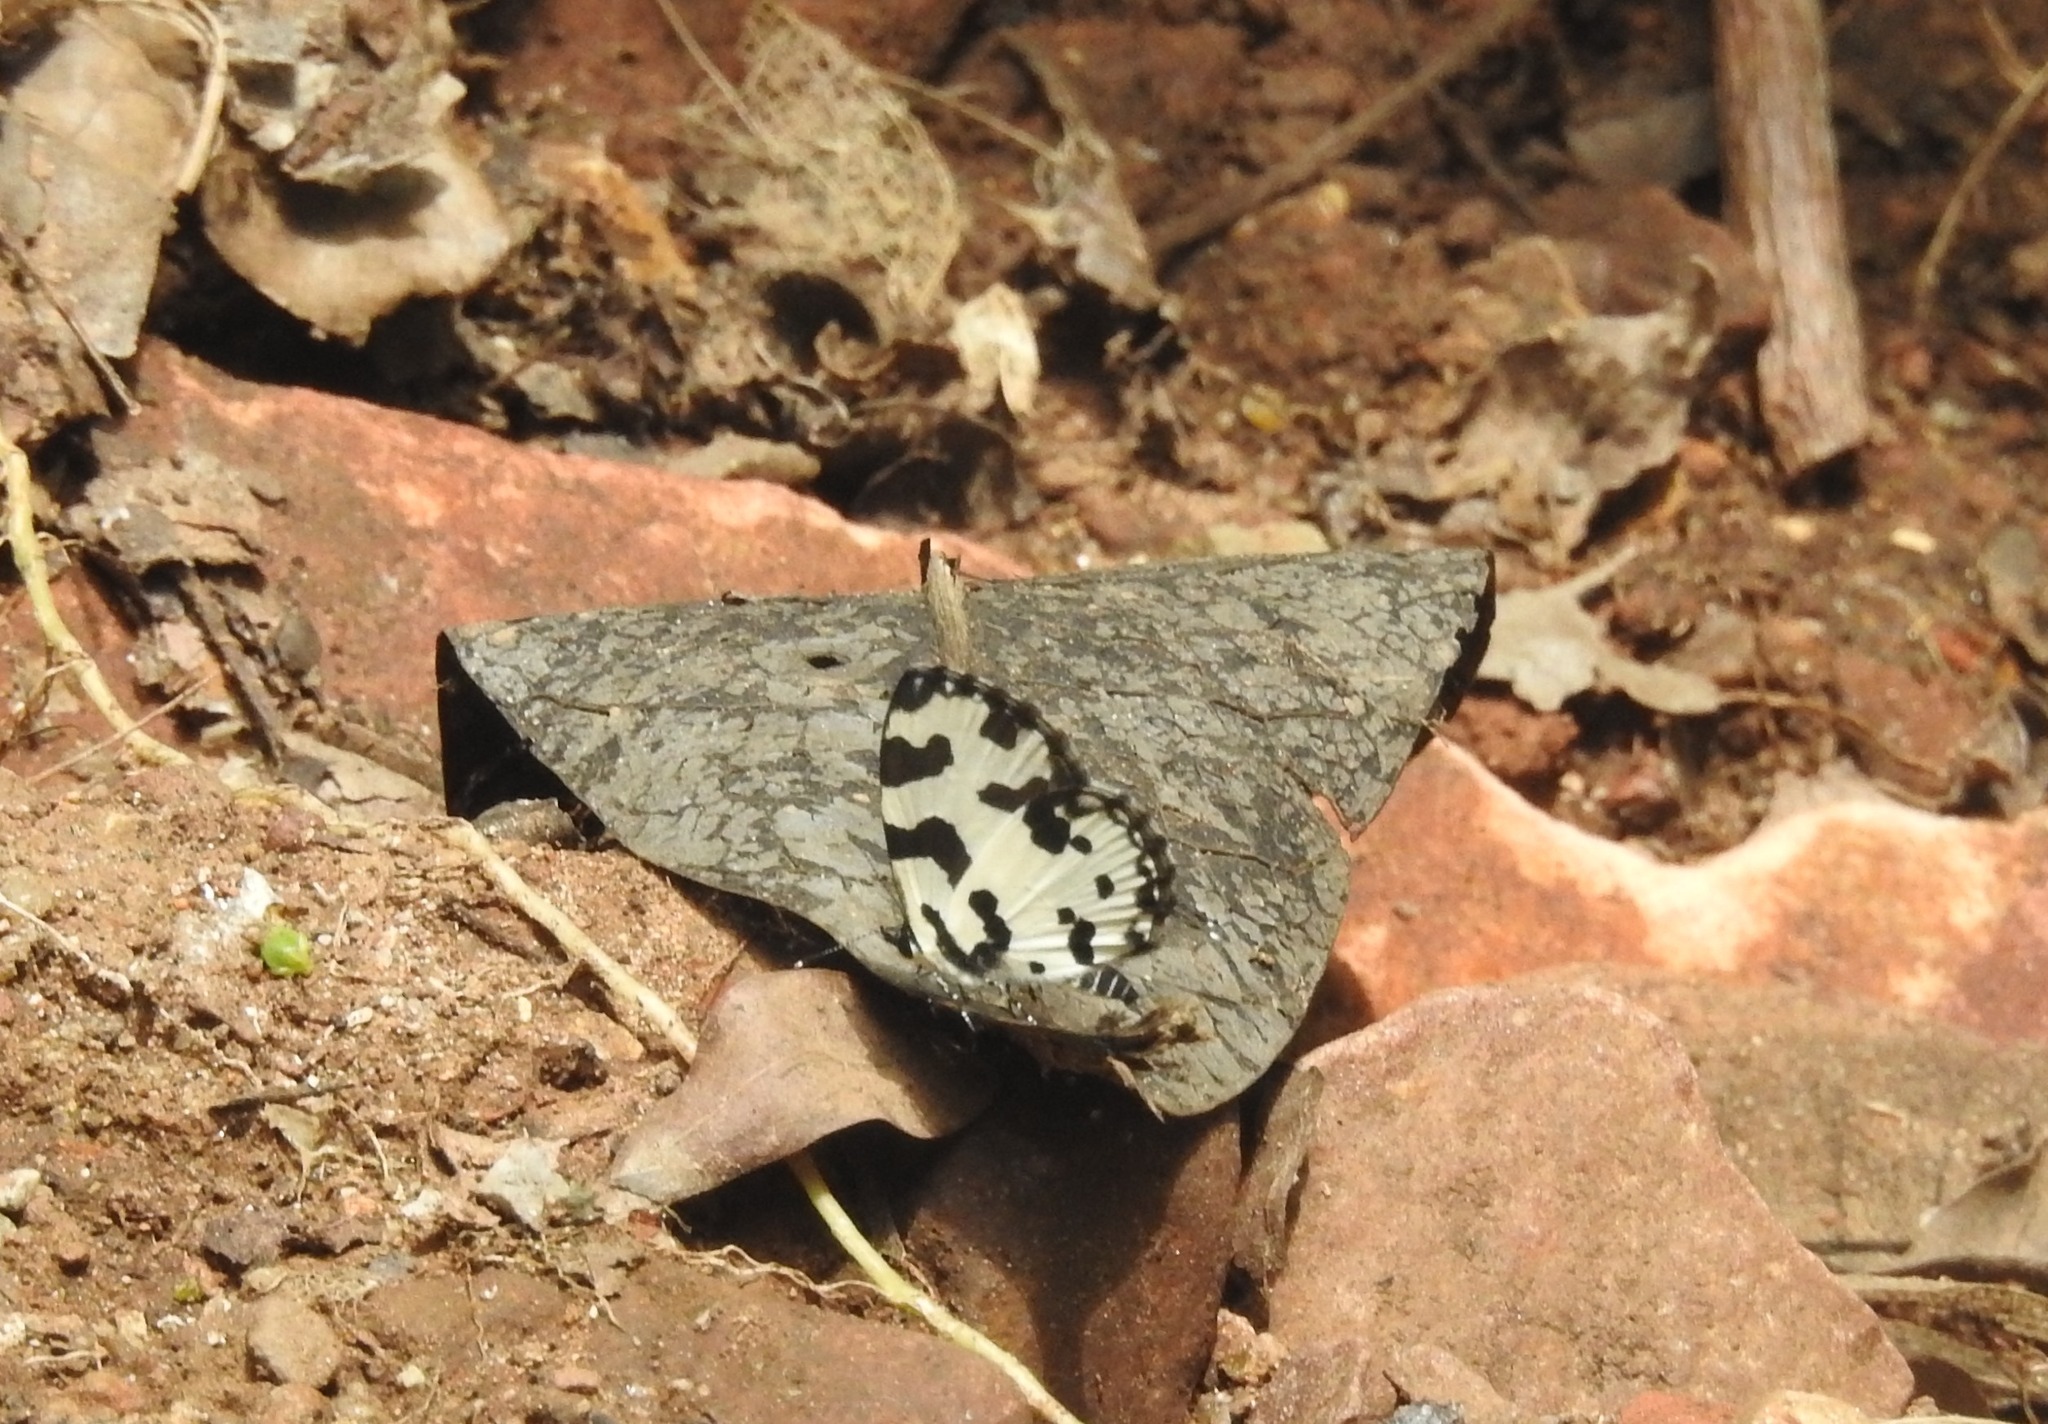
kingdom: Animalia
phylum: Arthropoda
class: Insecta
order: Lepidoptera
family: Lycaenidae
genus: Caleta
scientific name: Caleta decidia
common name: Angled pierrot
